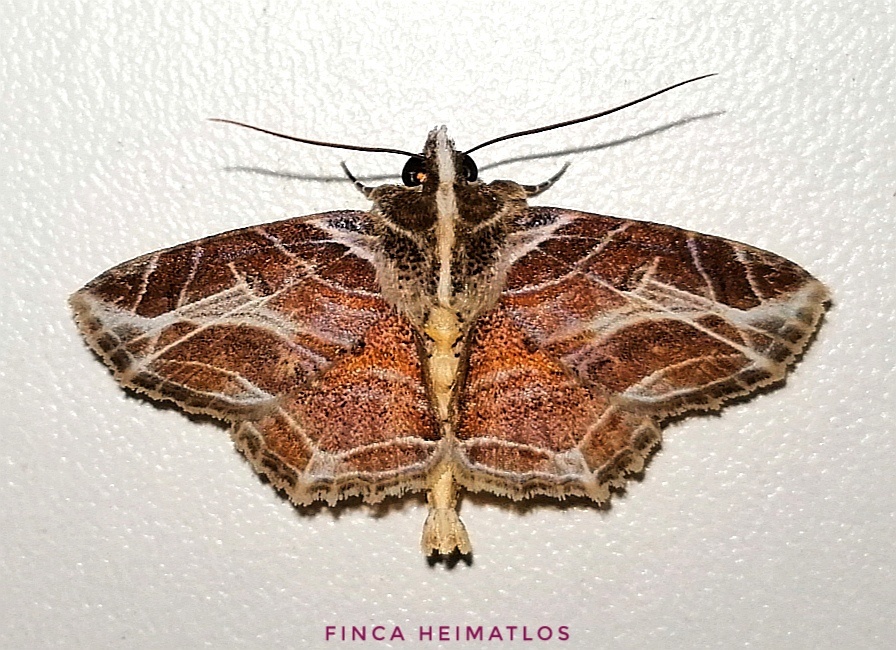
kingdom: Animalia
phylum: Arthropoda
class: Insecta
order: Lepidoptera
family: Erebidae
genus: Dolichosomastis
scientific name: Dolichosomastis leucogrammica
